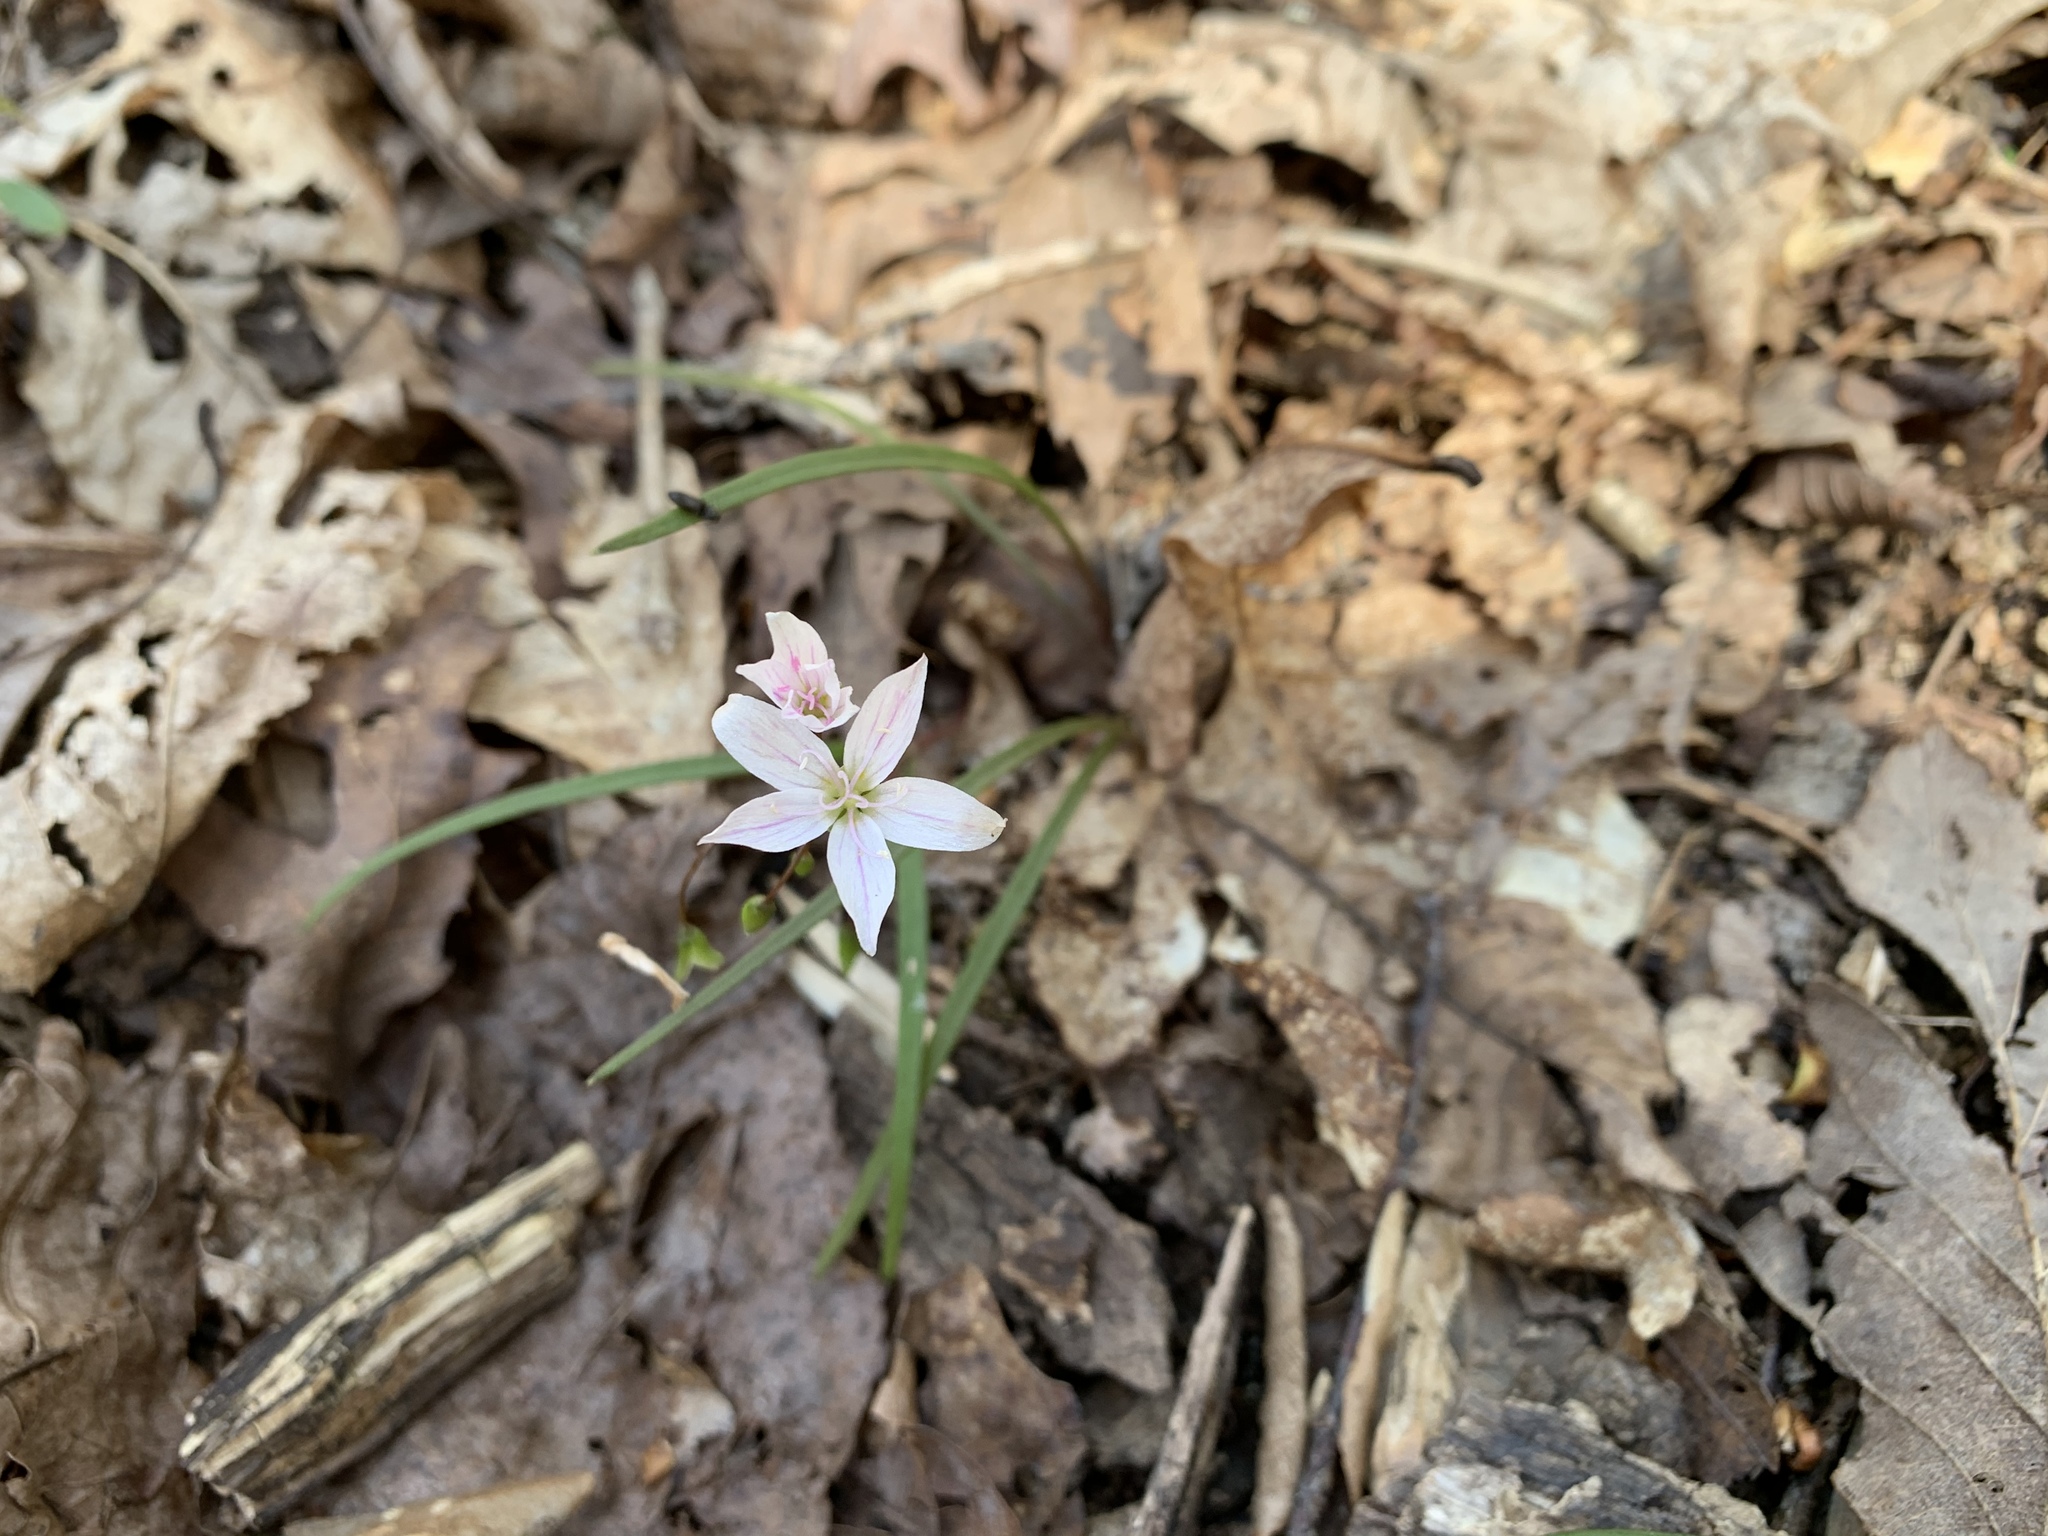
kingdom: Plantae
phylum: Tracheophyta
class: Magnoliopsida
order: Caryophyllales
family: Montiaceae
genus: Claytonia
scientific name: Claytonia virginica
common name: Virginia springbeauty
